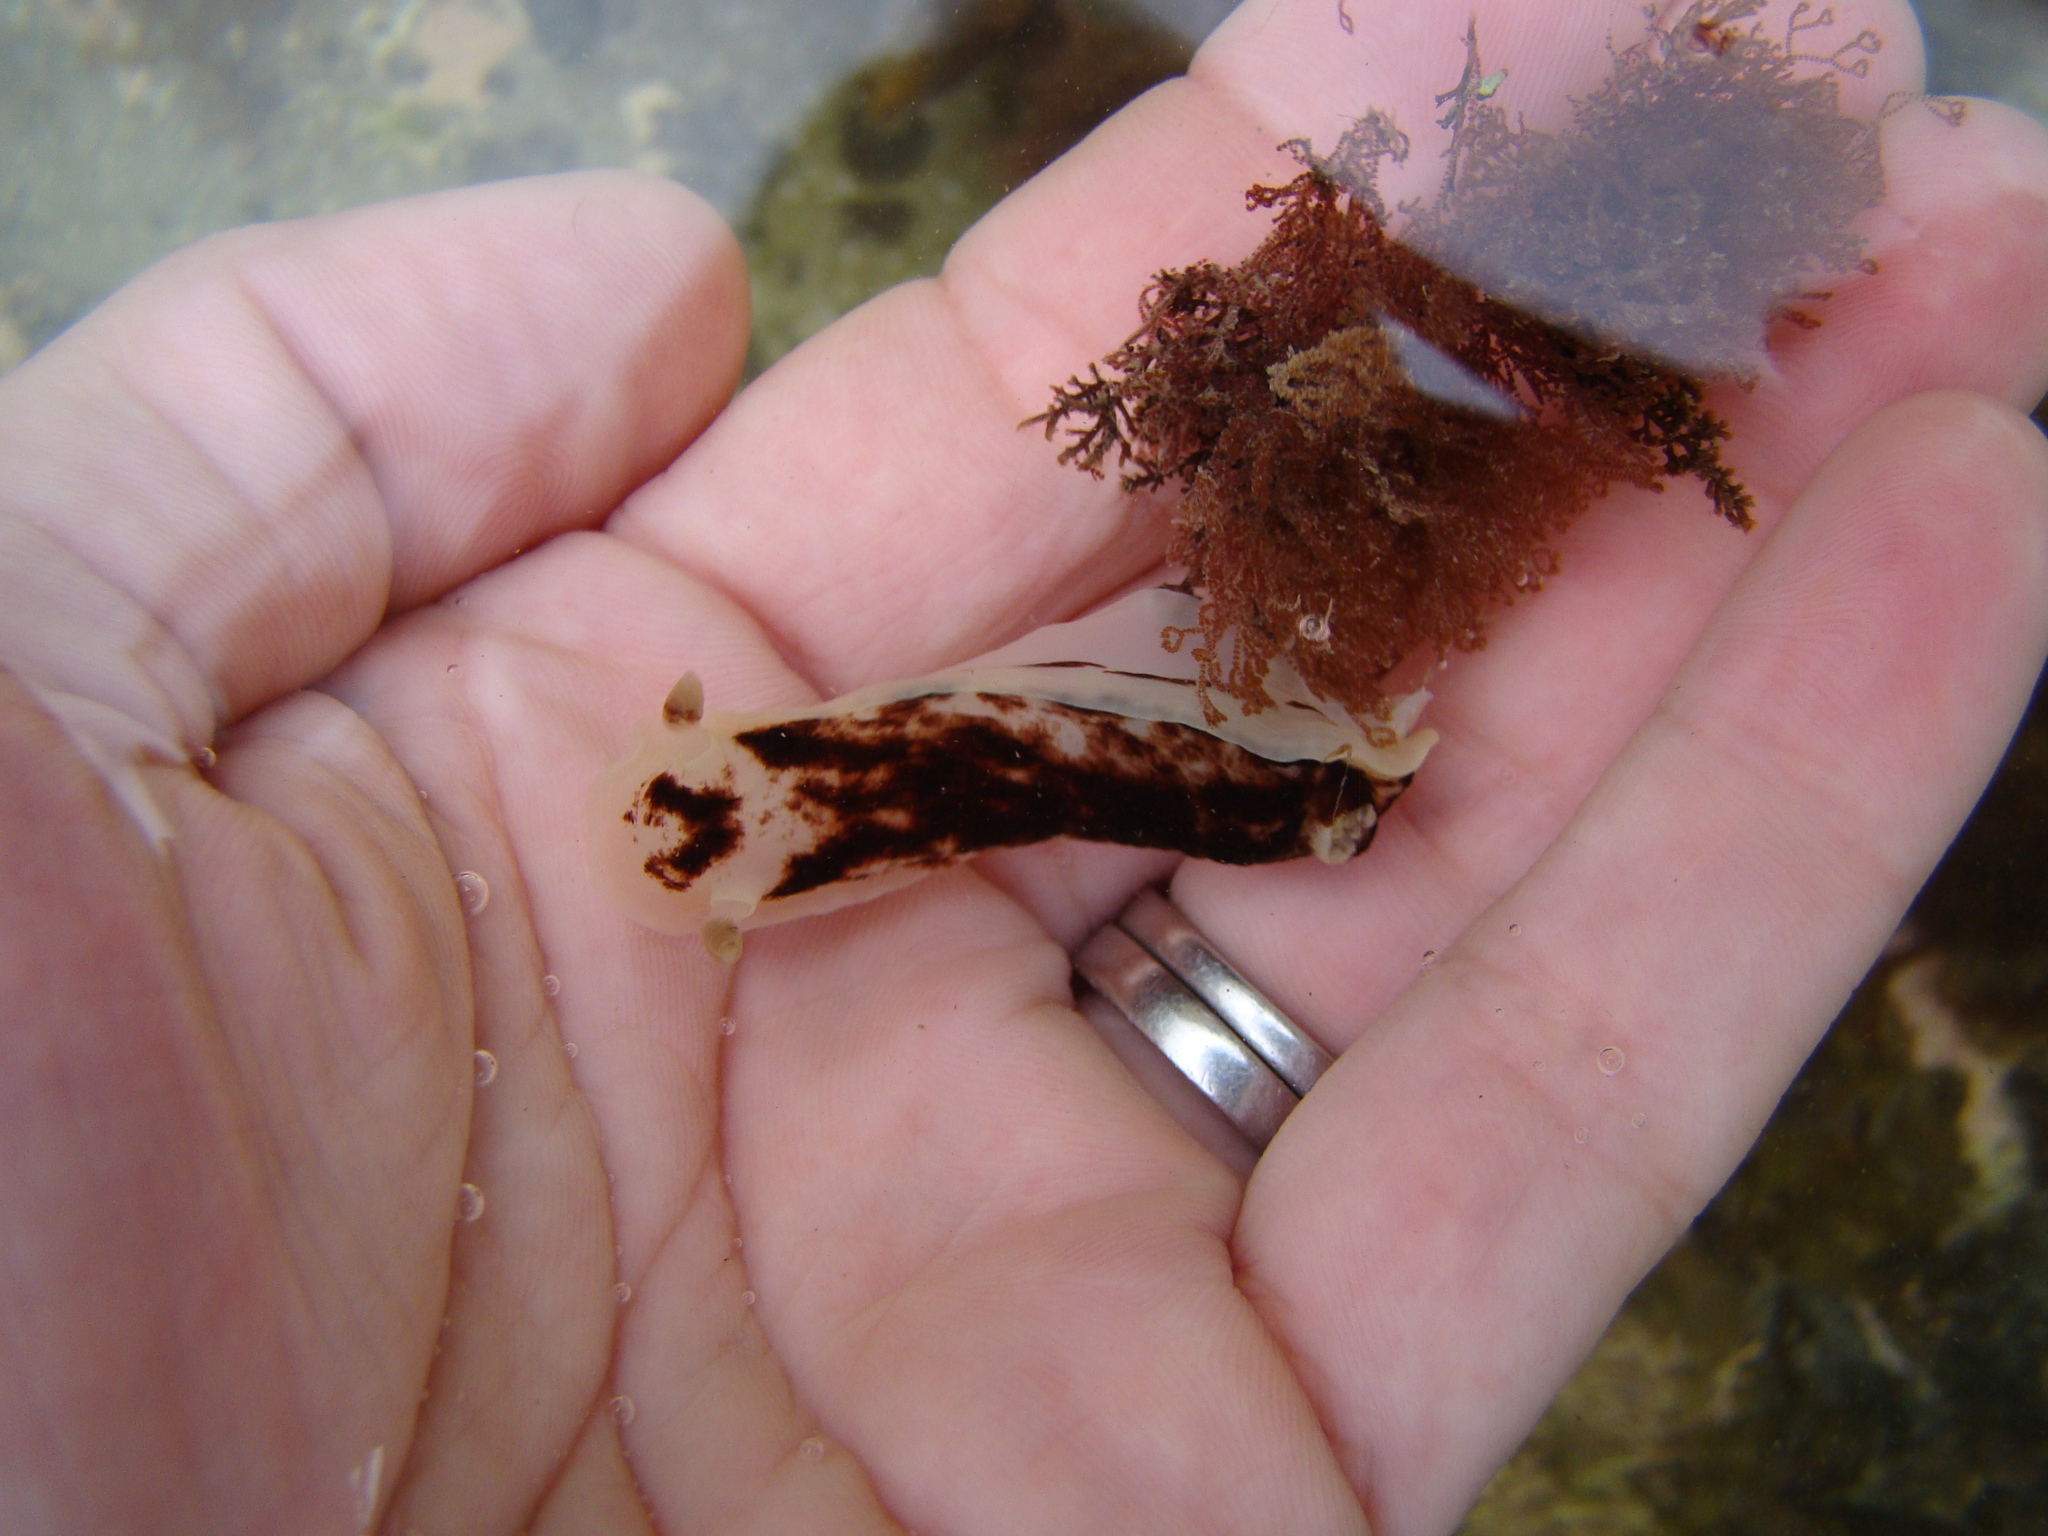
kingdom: Animalia
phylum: Mollusca
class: Gastropoda
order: Nudibranchia
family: Dorididae
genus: Aphelodoris
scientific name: Aphelodoris luctuosa
